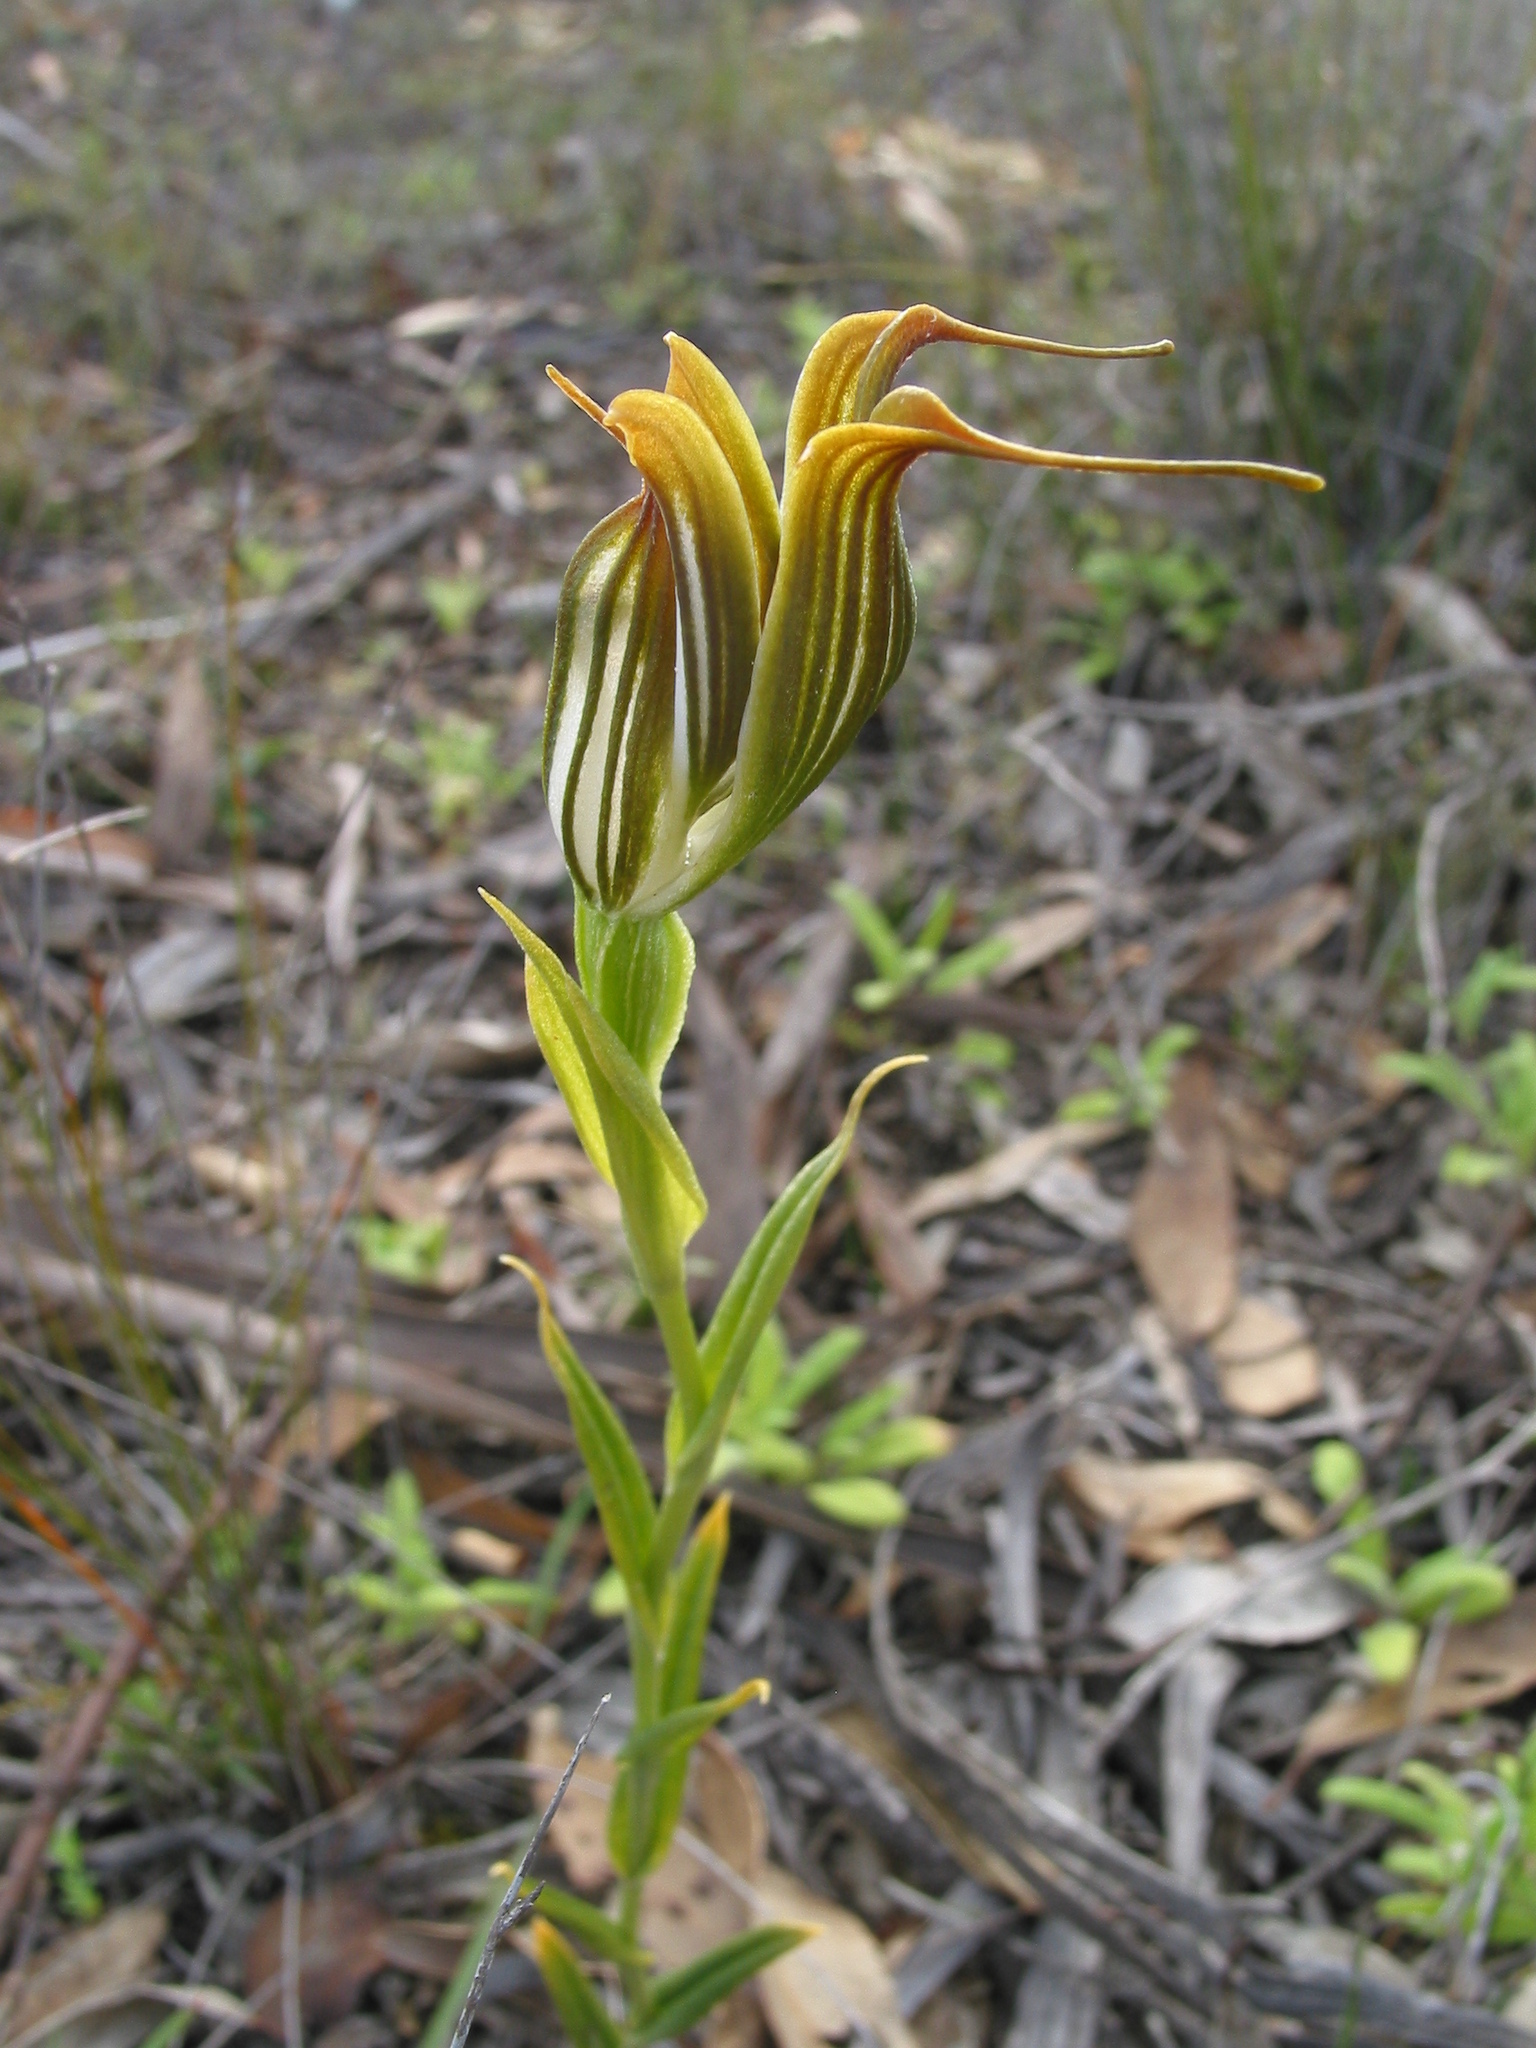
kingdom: Plantae
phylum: Tracheophyta
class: Liliopsida
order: Asparagales
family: Orchidaceae
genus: Pterostylis
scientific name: Pterostylis recurva
